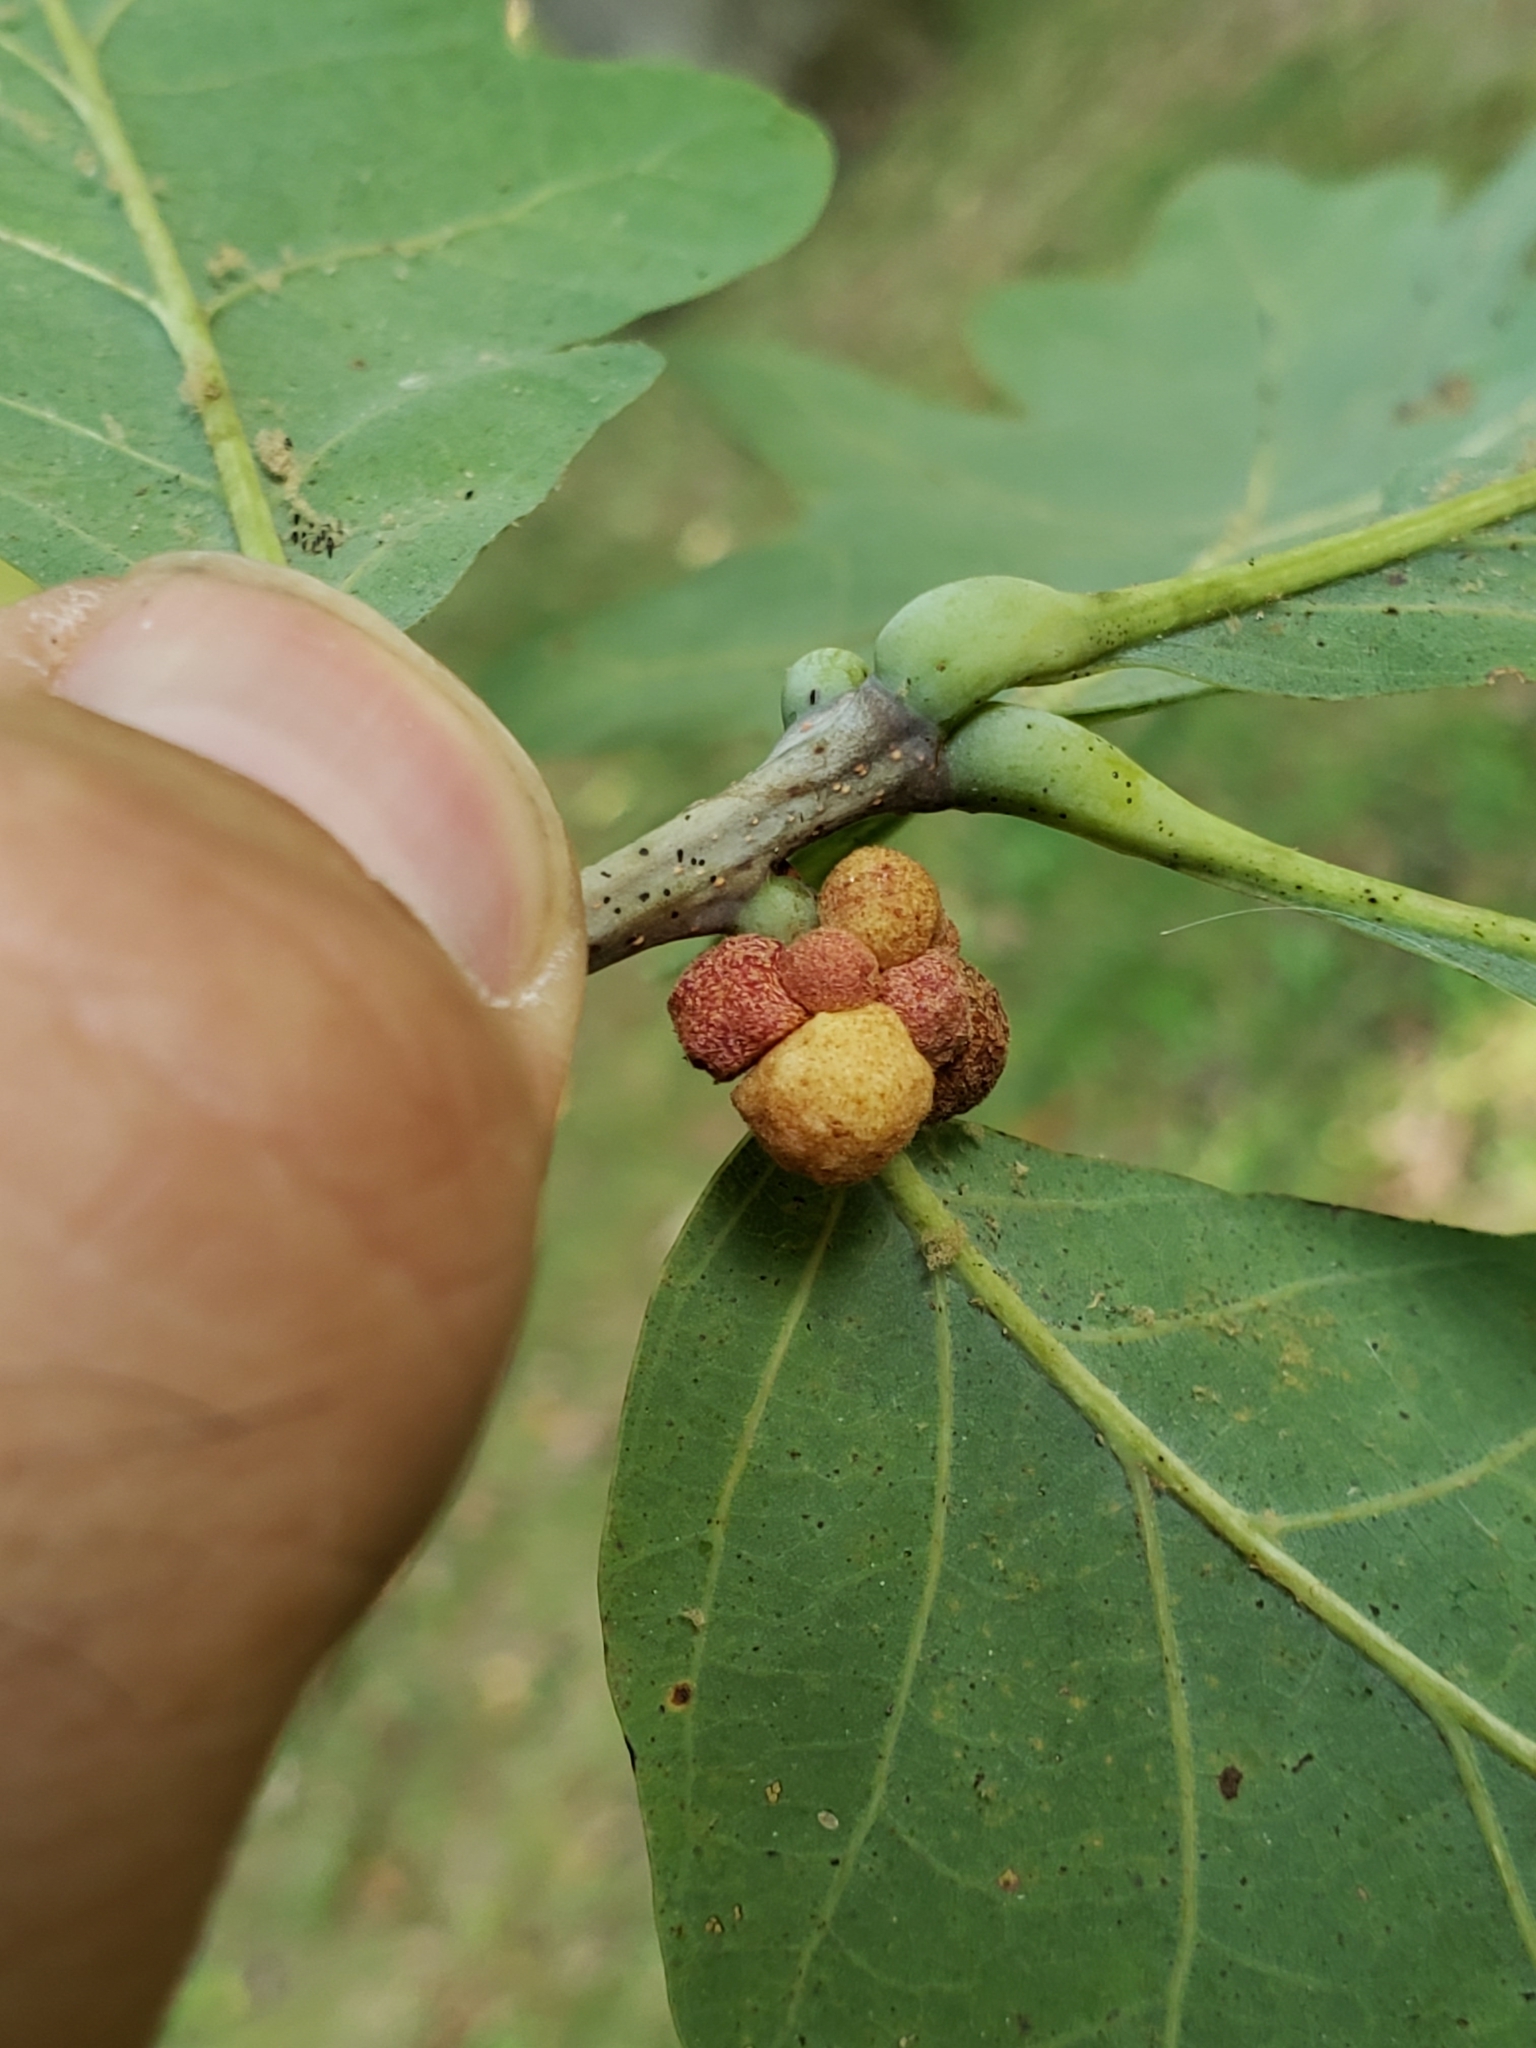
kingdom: Animalia
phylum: Arthropoda
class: Insecta
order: Hymenoptera
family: Cynipidae
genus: Andricus
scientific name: Andricus
